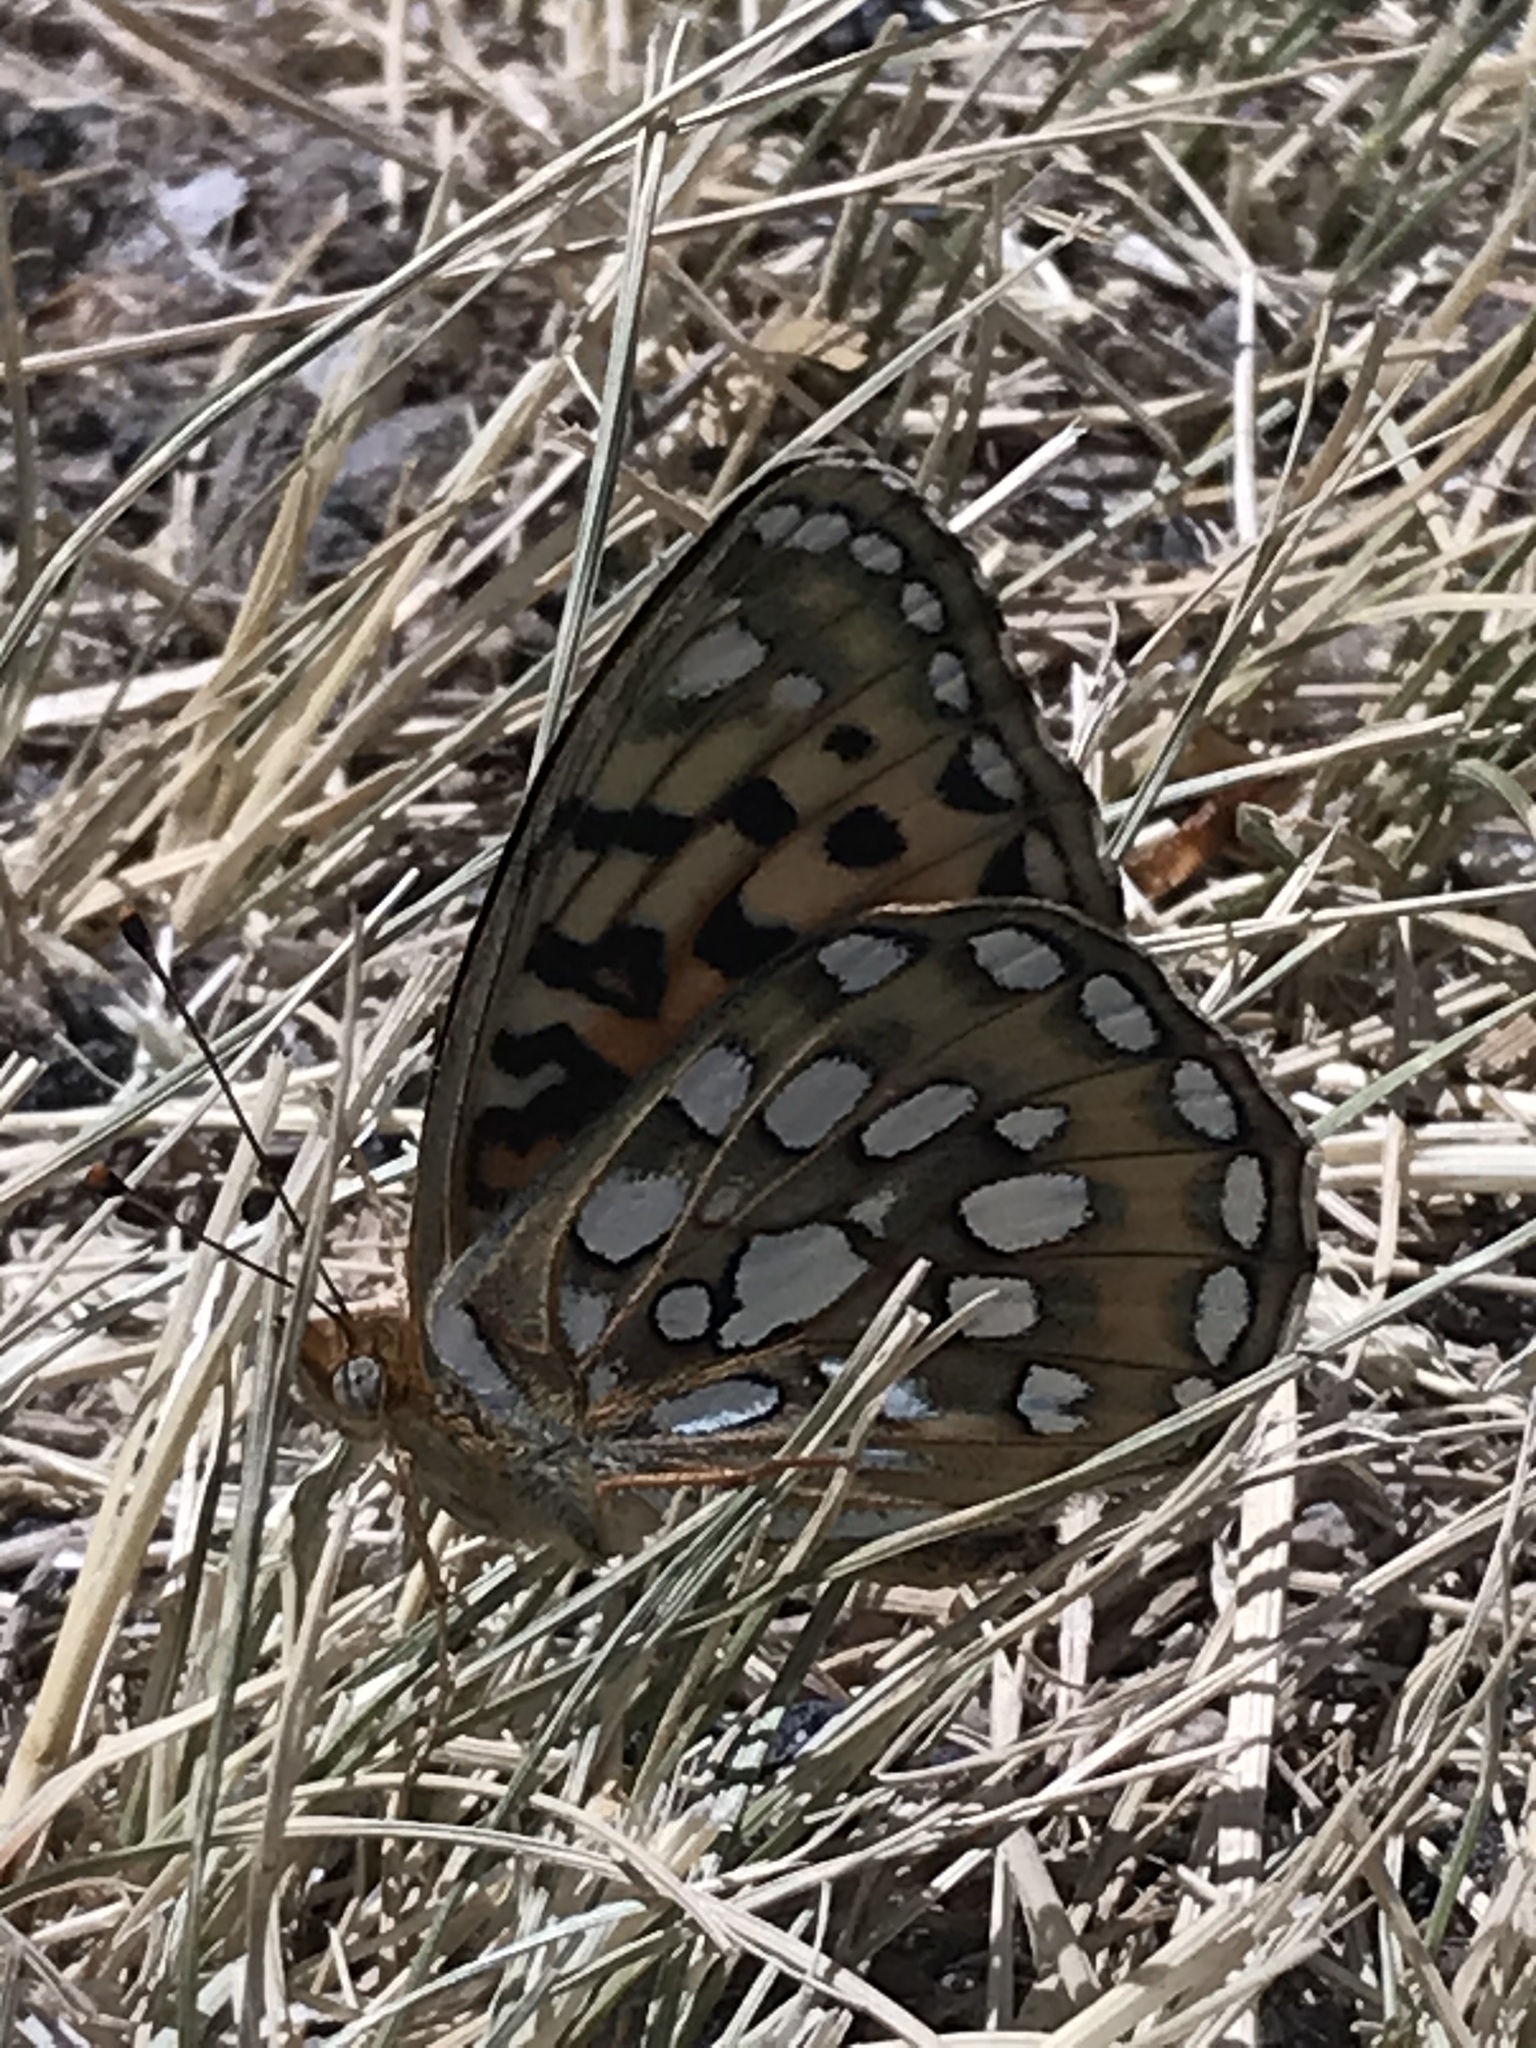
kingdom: Animalia
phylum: Arthropoda
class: Insecta
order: Lepidoptera
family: Nymphalidae
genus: Argynnis
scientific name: Argynnis coronis
